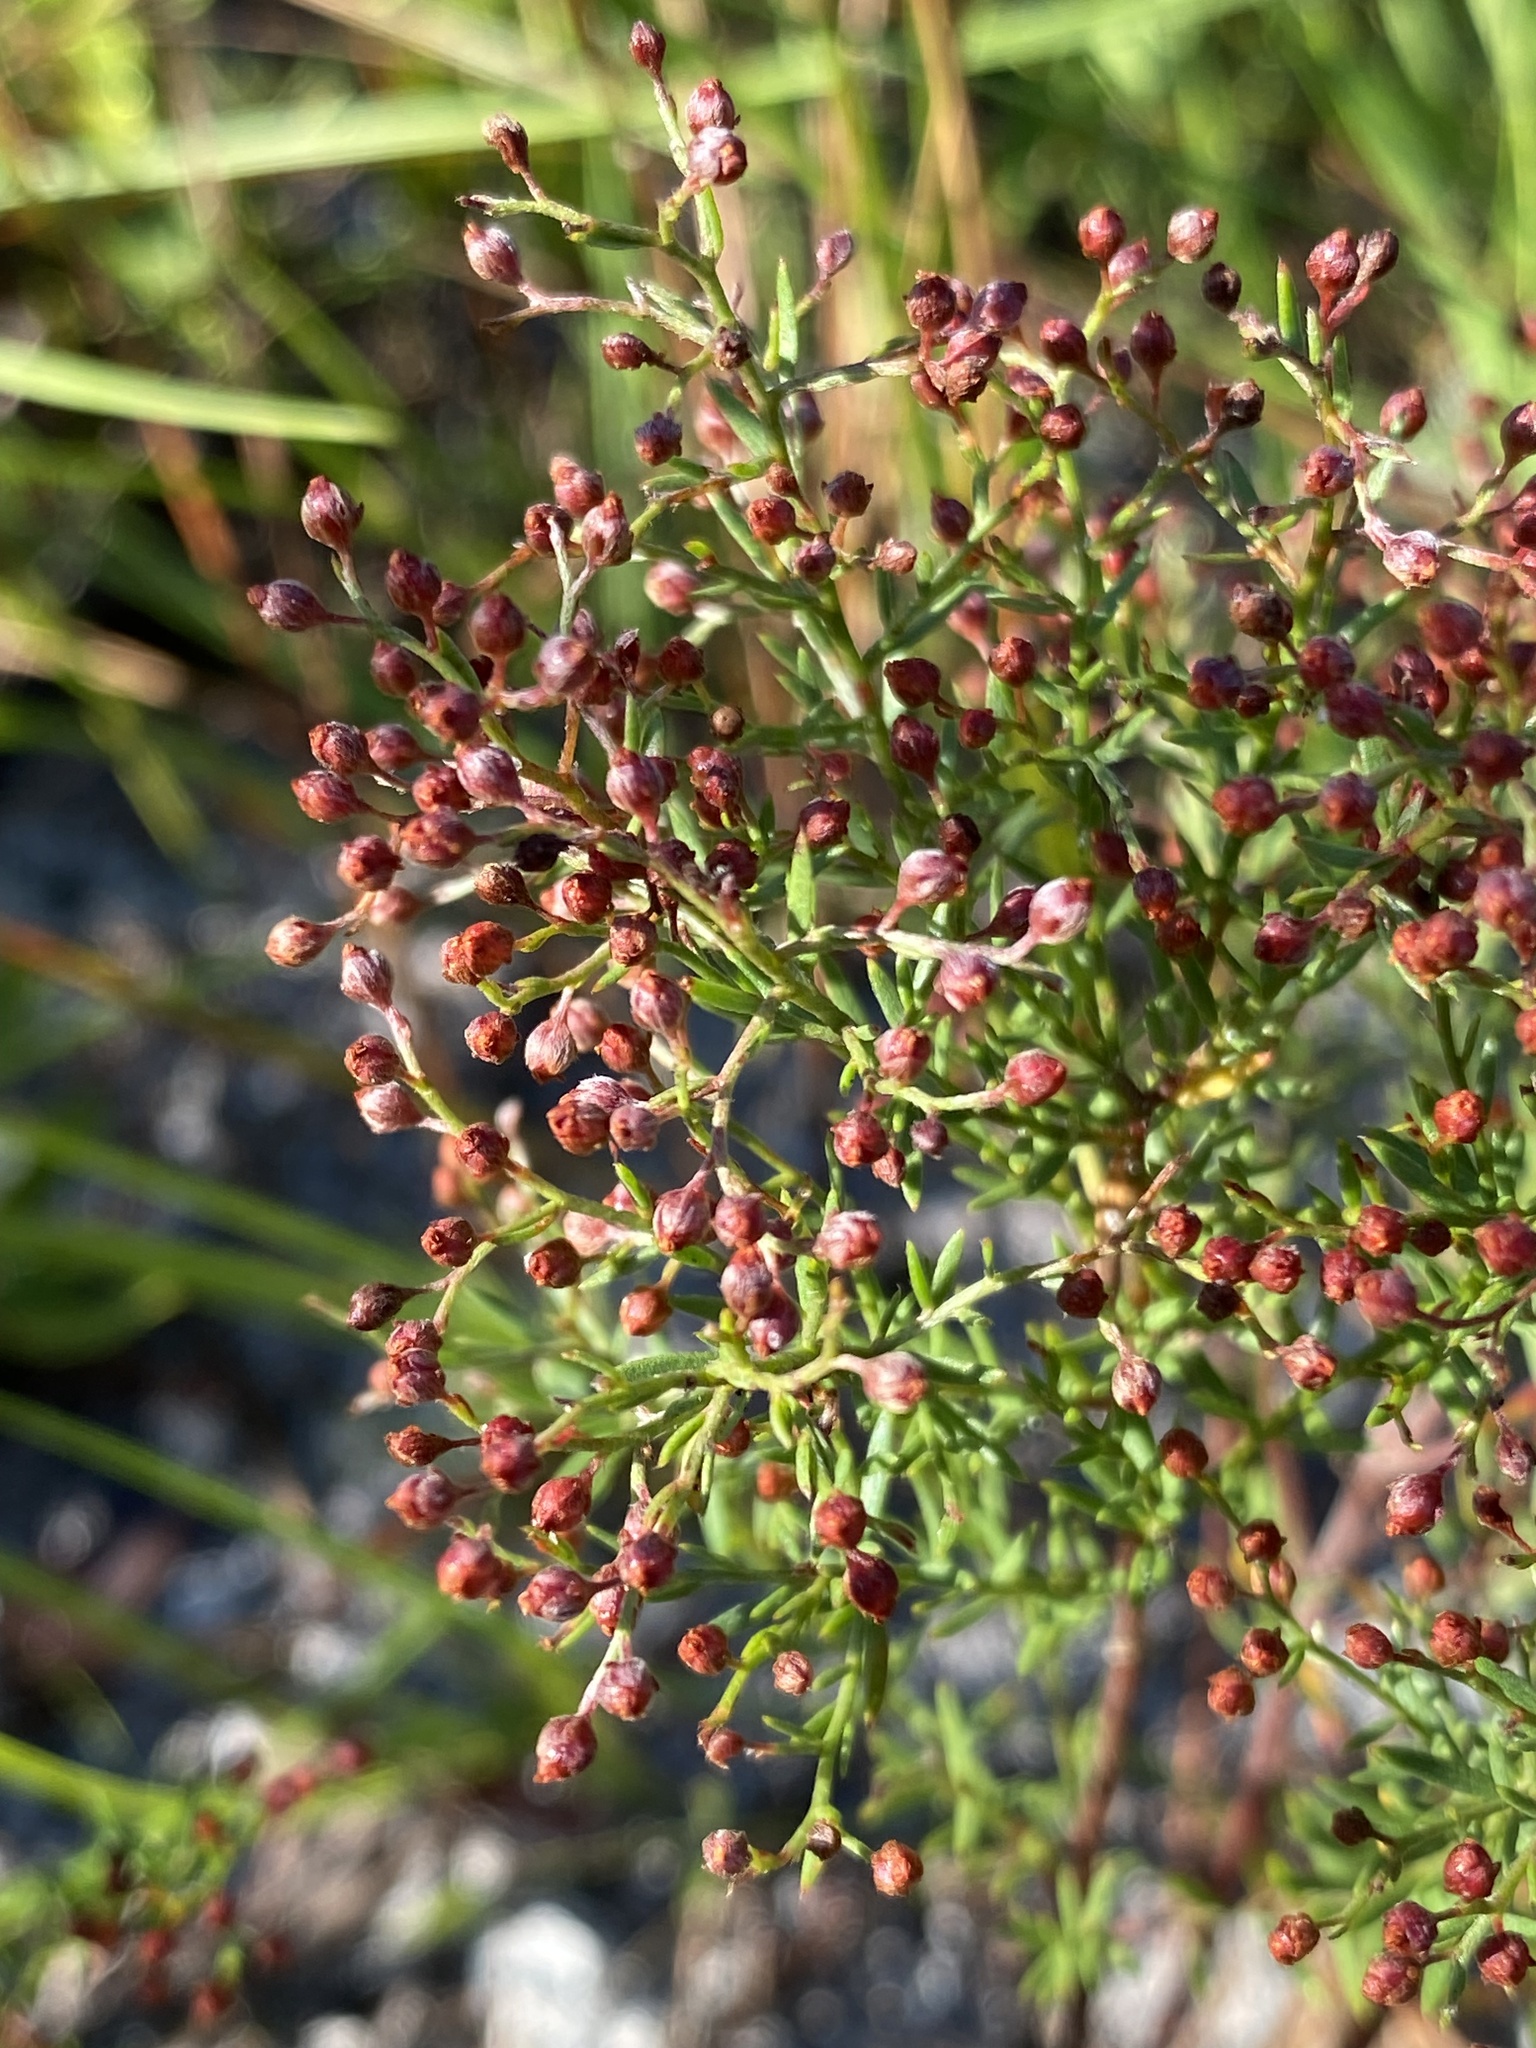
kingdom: Plantae
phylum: Tracheophyta
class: Magnoliopsida
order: Malvales
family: Cistaceae
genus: Lechea
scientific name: Lechea torreyi
